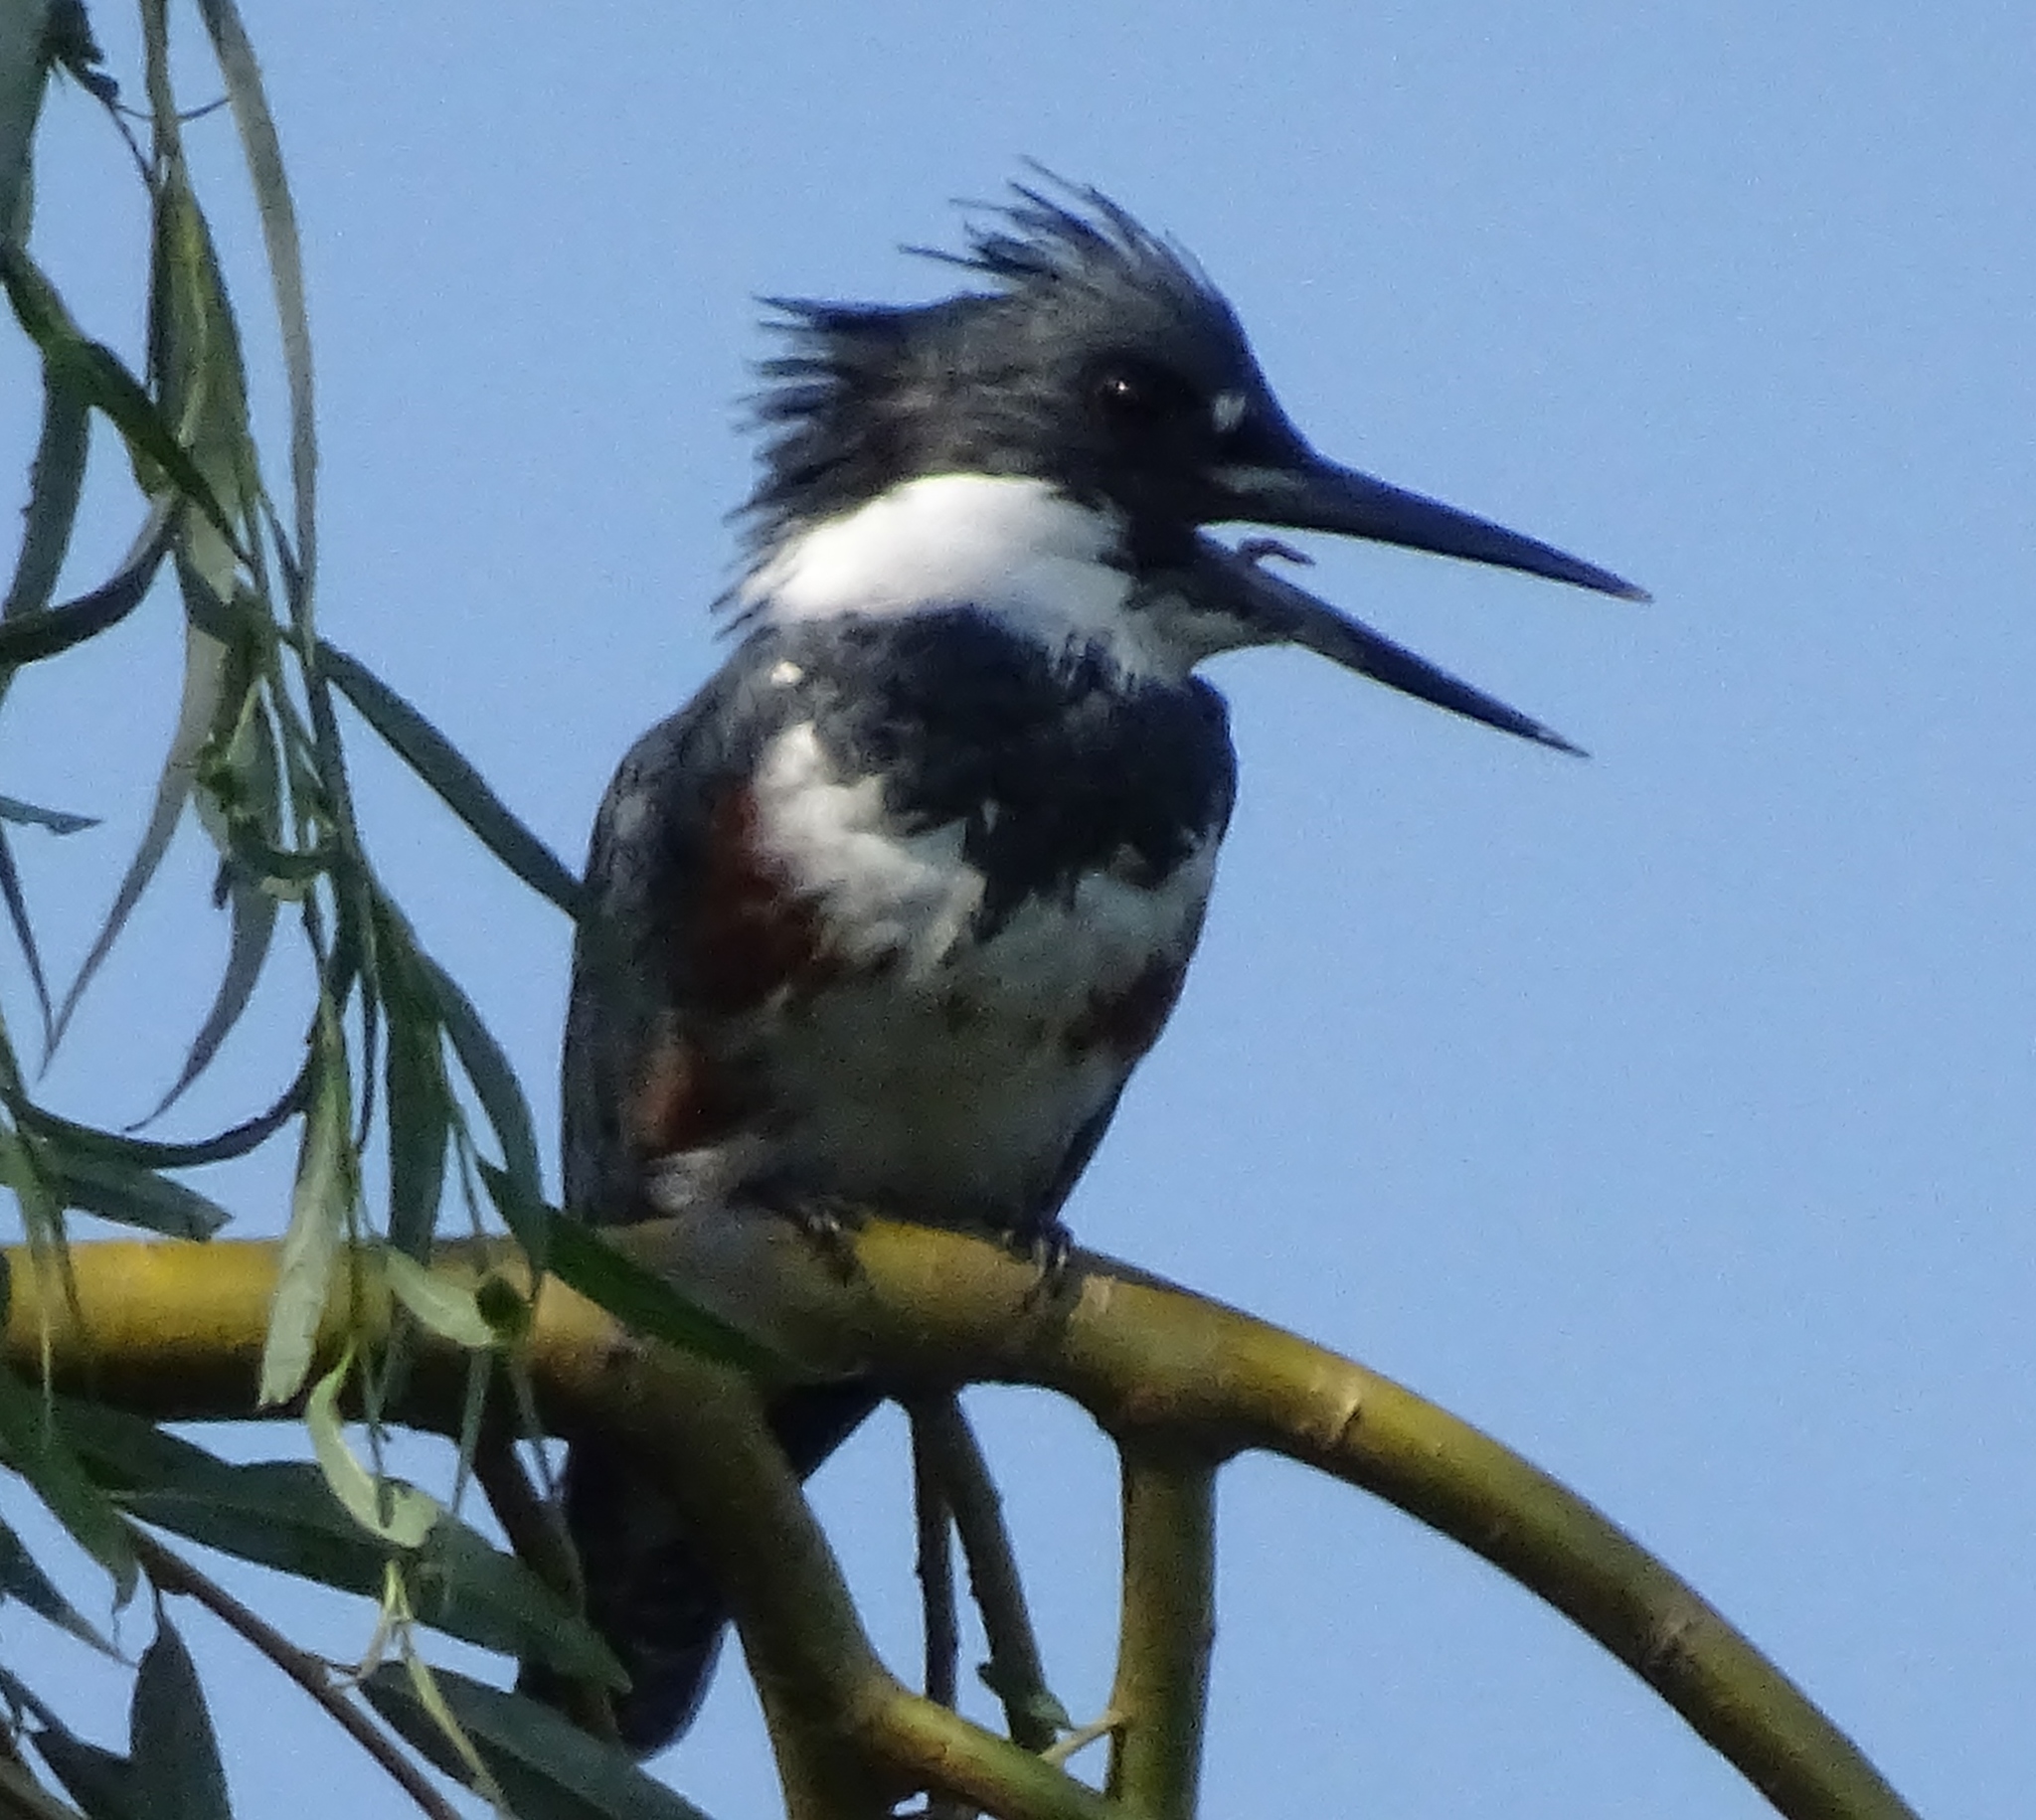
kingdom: Animalia
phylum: Chordata
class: Aves
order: Coraciiformes
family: Alcedinidae
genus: Megaceryle
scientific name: Megaceryle alcyon
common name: Belted kingfisher
